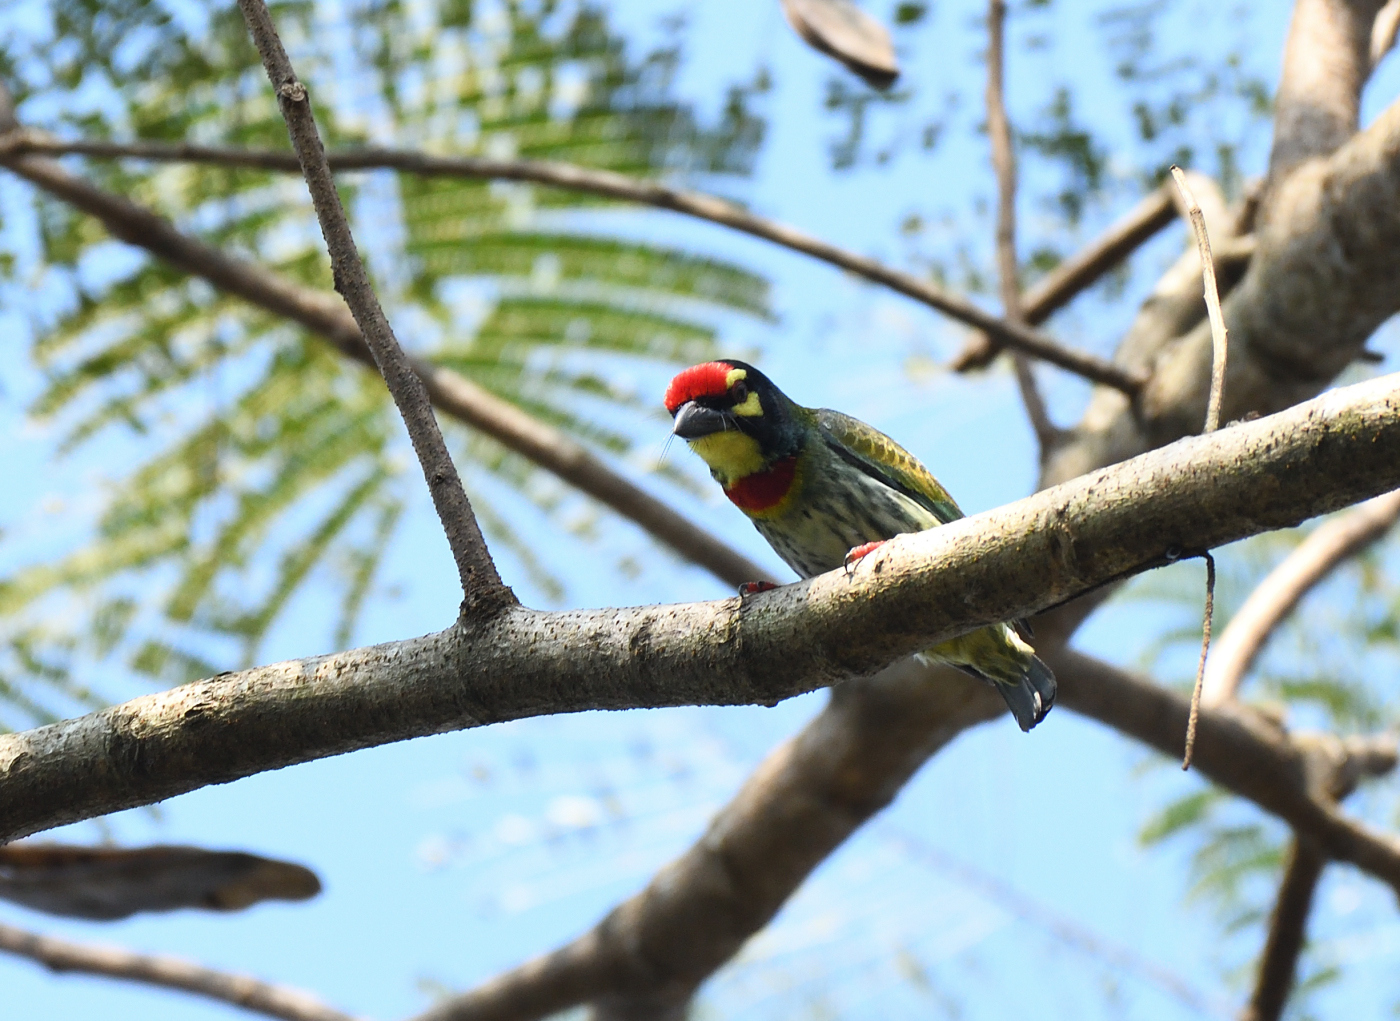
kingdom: Animalia
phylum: Chordata
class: Aves
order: Piciformes
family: Megalaimidae
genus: Psilopogon
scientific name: Psilopogon haemacephalus
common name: Coppersmith barbet
